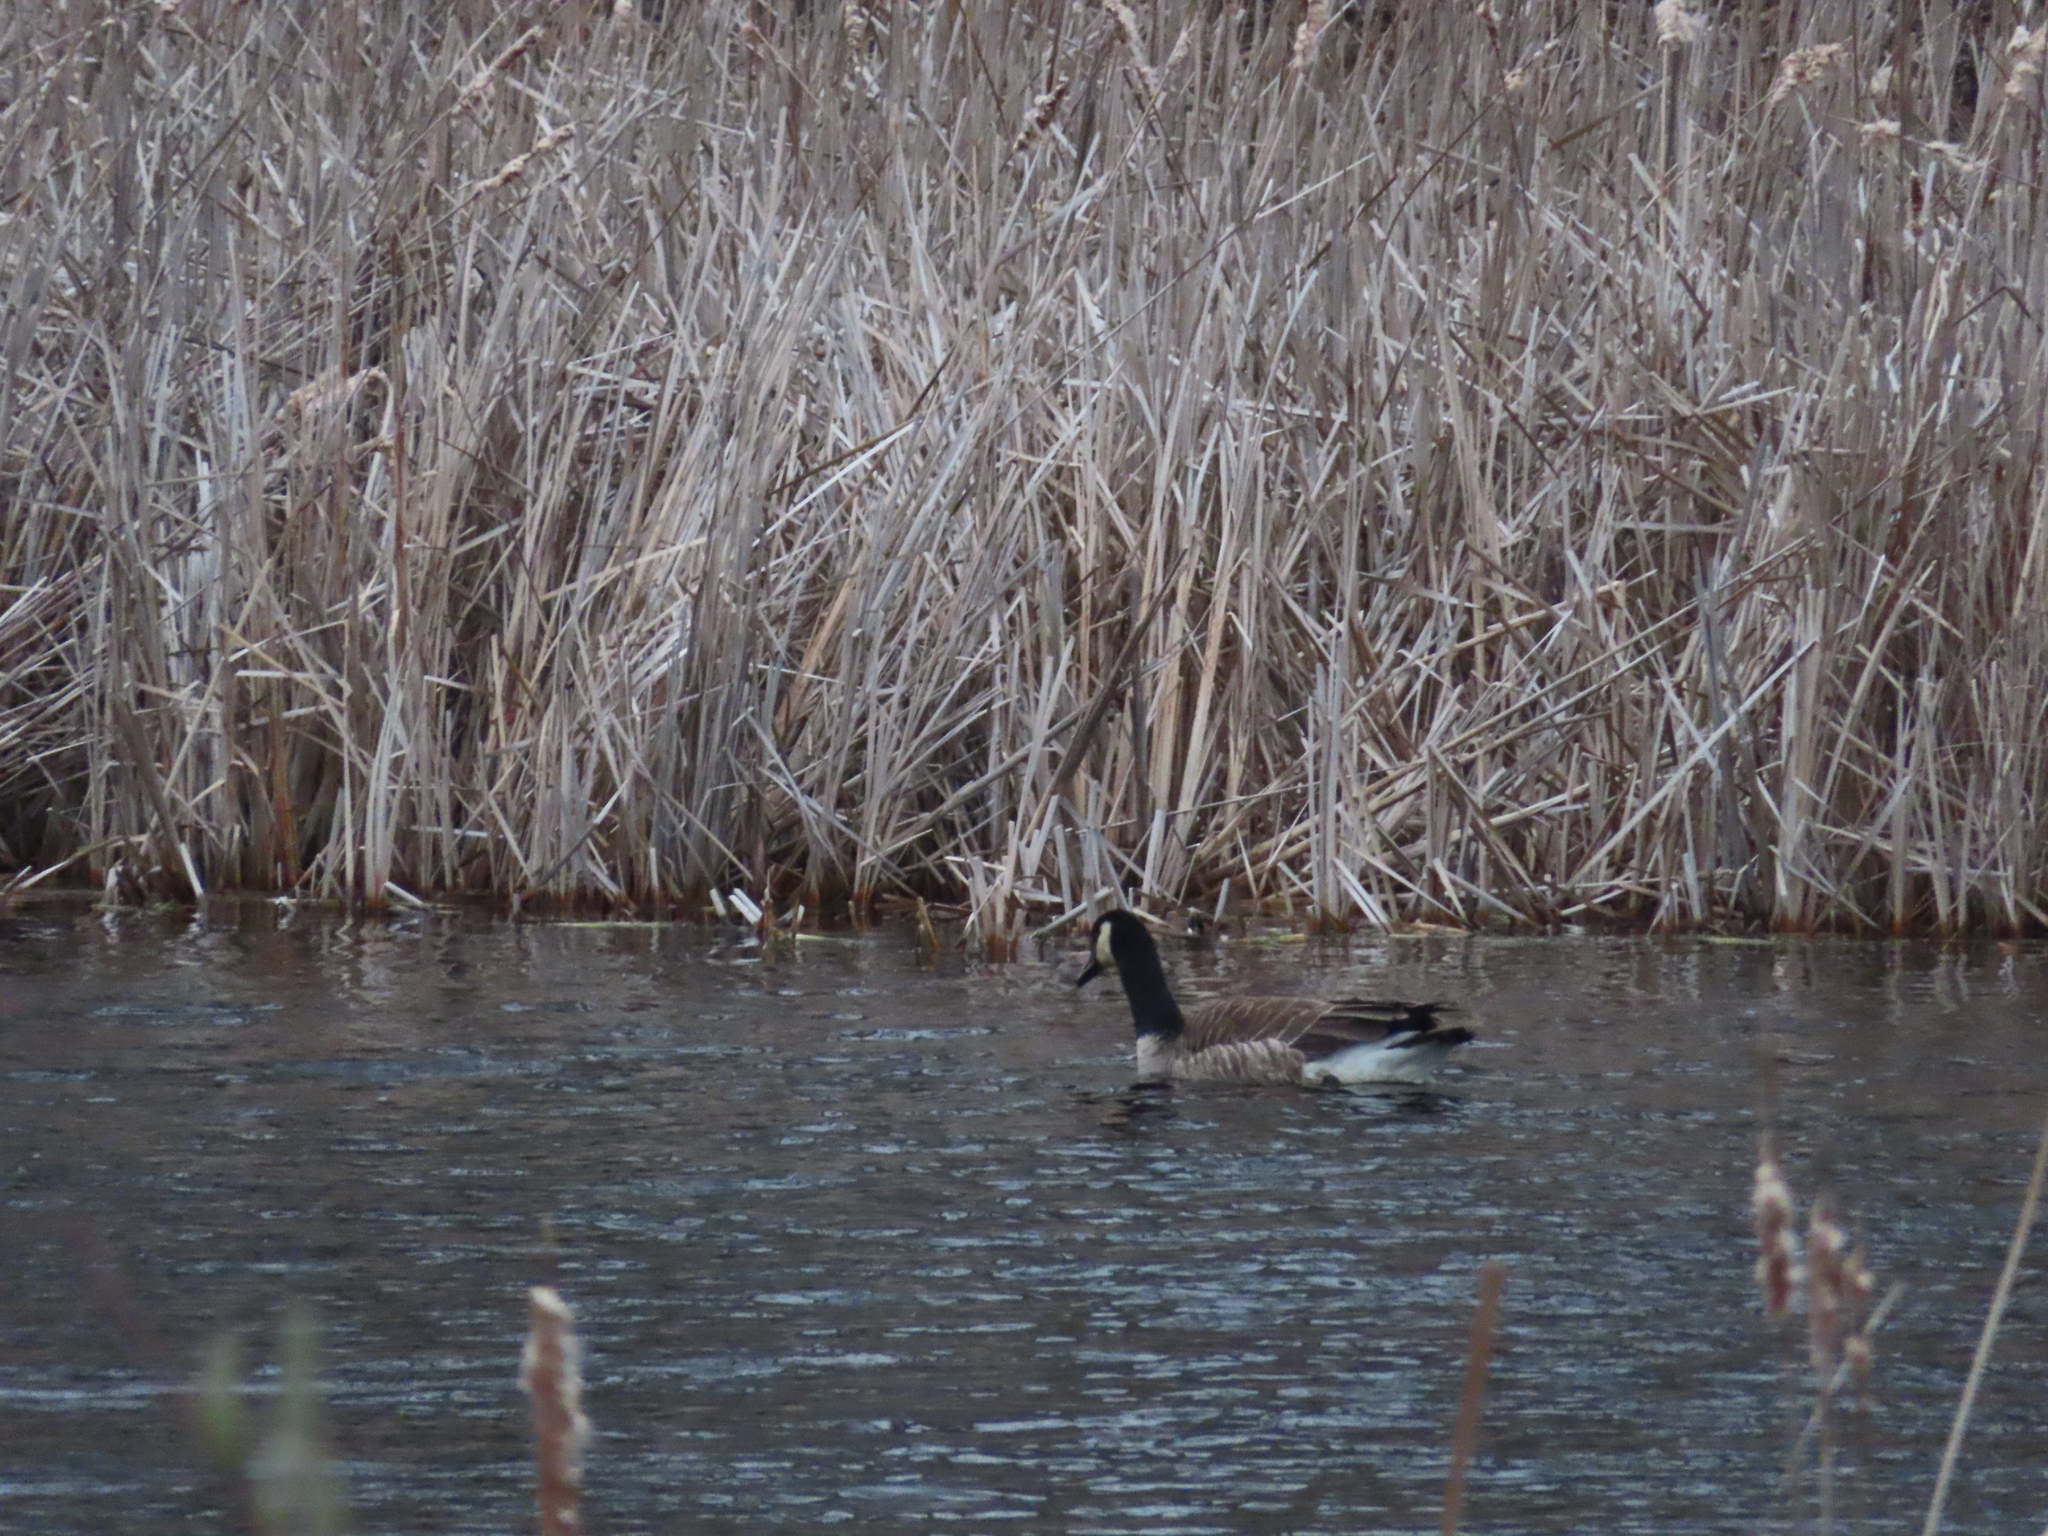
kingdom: Animalia
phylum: Chordata
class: Aves
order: Anseriformes
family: Anatidae
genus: Branta
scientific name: Branta canadensis
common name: Canada goose
